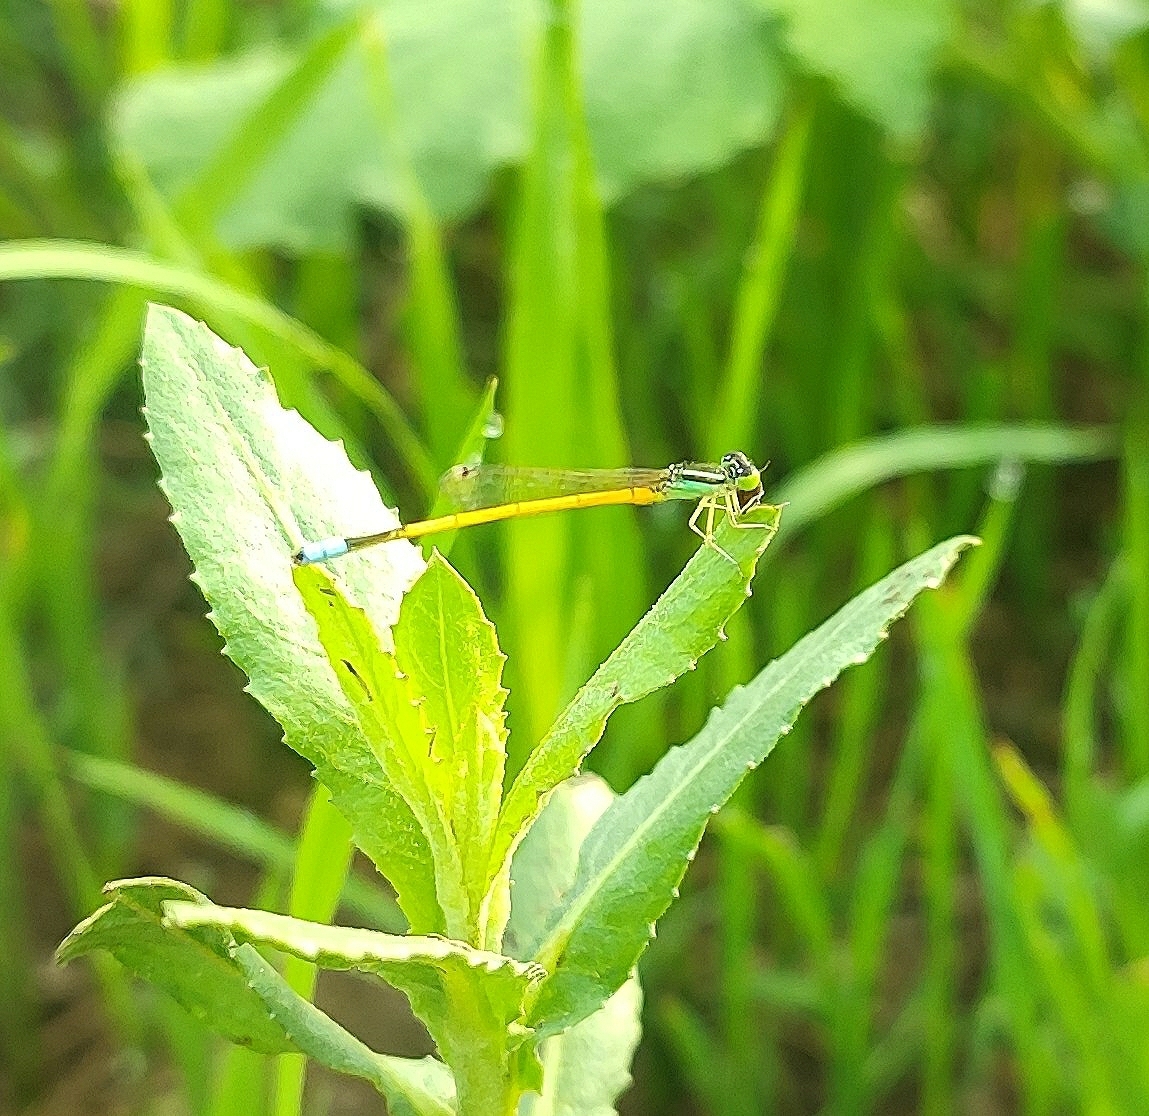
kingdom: Animalia
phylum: Arthropoda
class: Insecta
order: Odonata
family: Coenagrionidae
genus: Ischnura
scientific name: Ischnura rubilio
